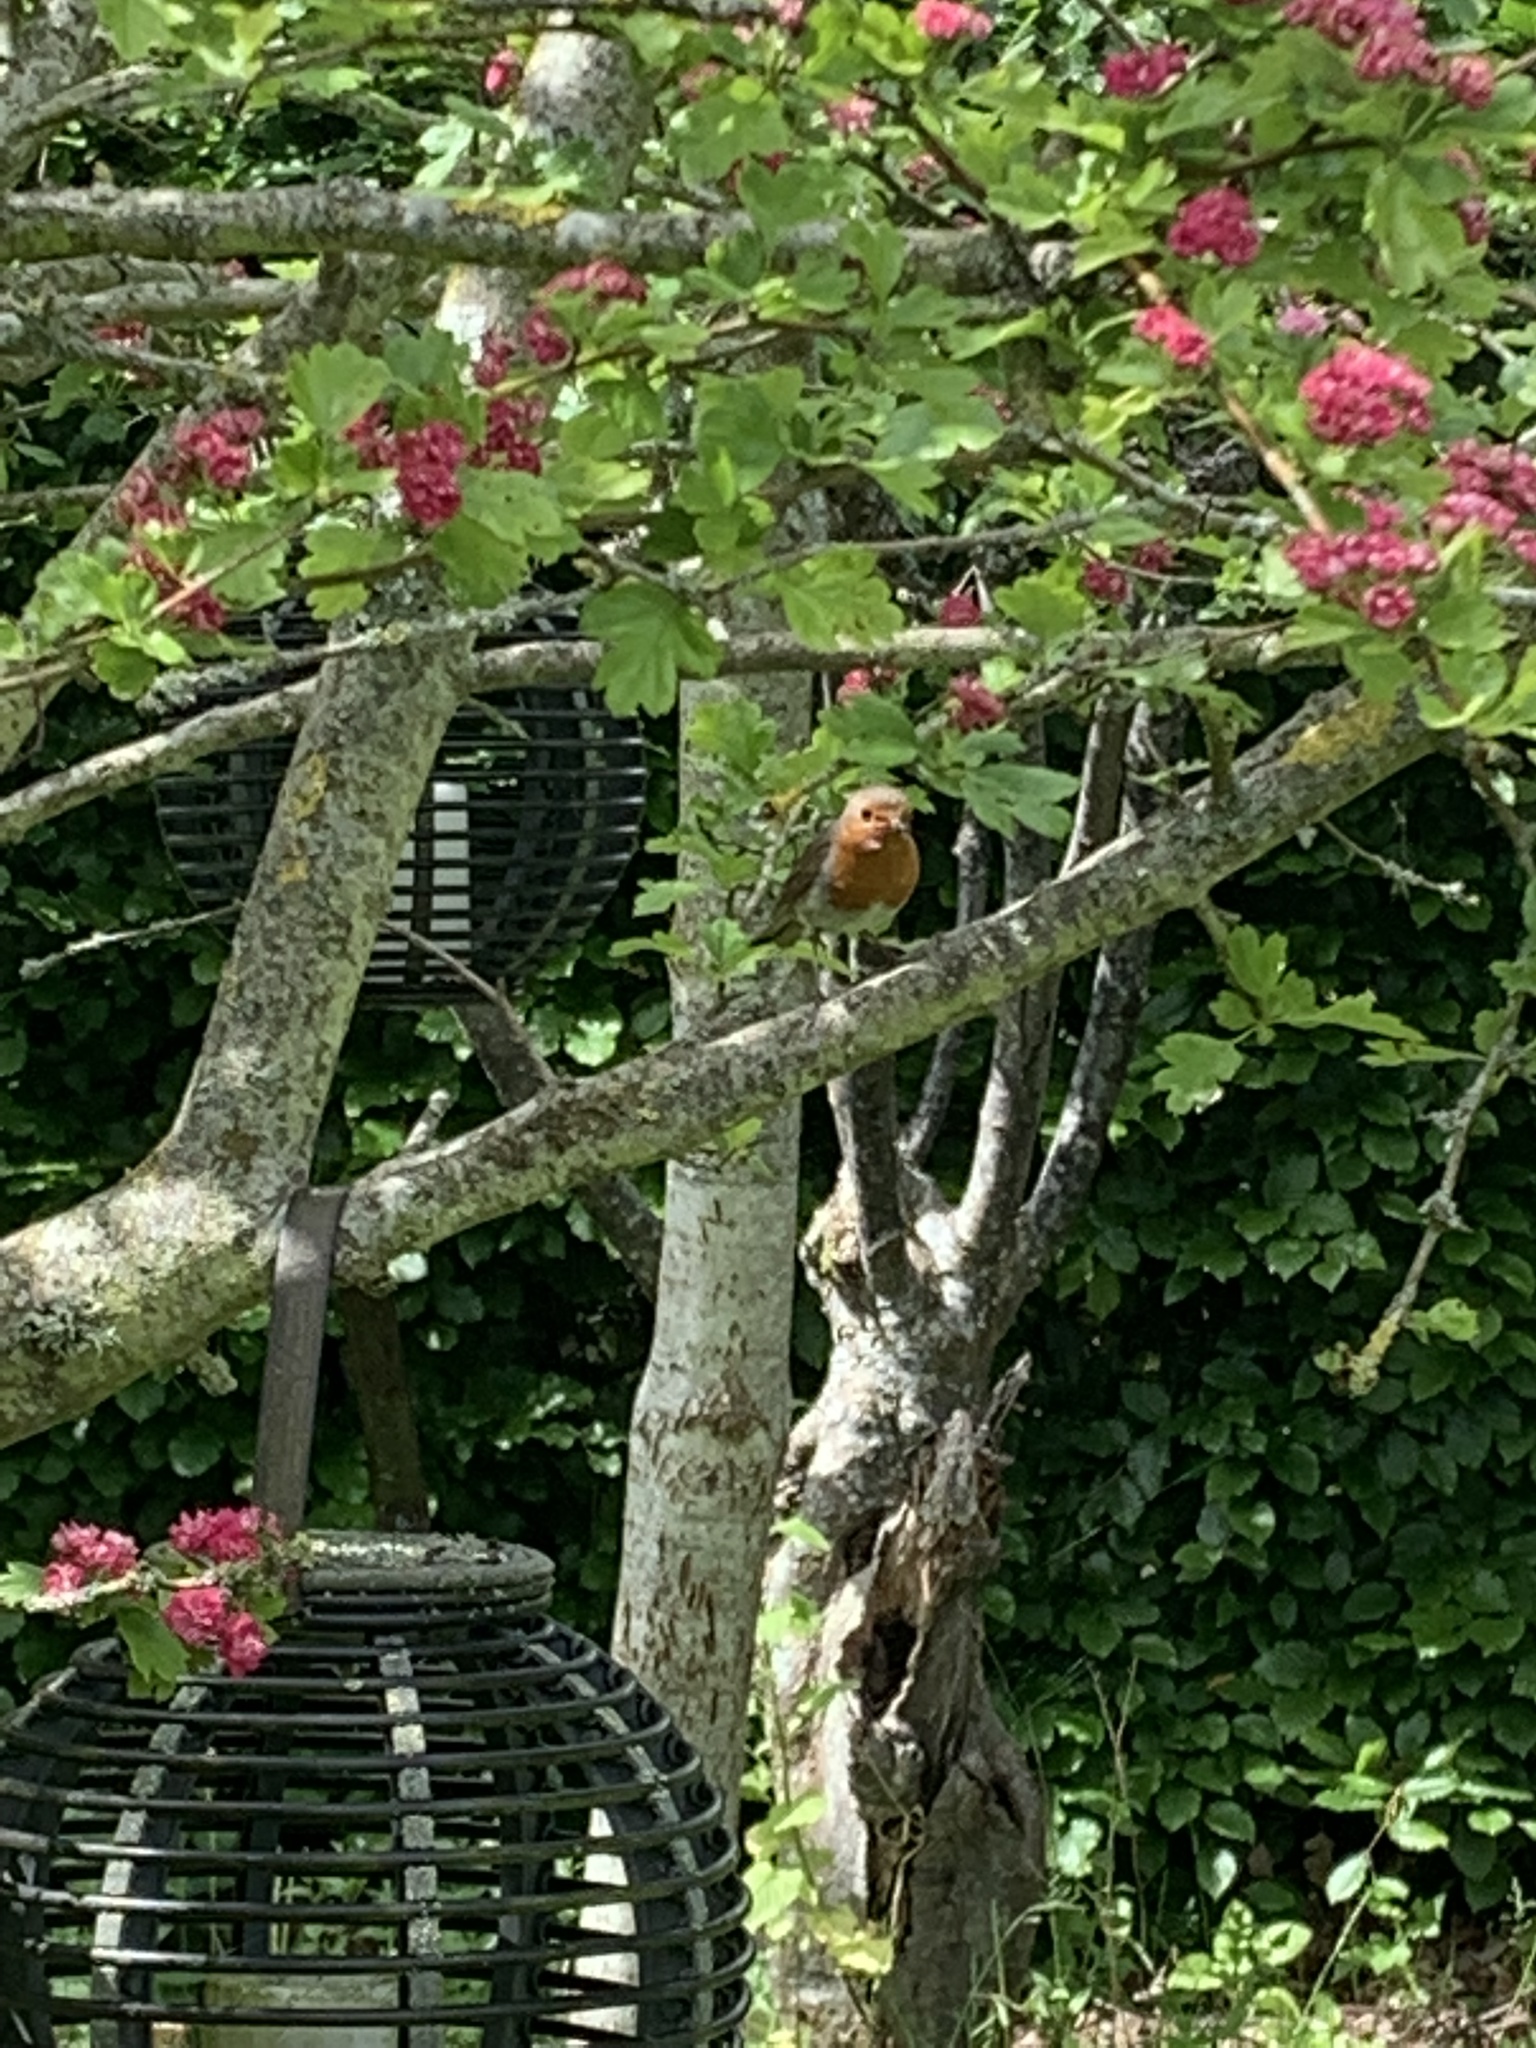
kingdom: Animalia
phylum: Chordata
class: Aves
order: Passeriformes
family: Muscicapidae
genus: Erithacus
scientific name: Erithacus rubecula
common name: European robin
